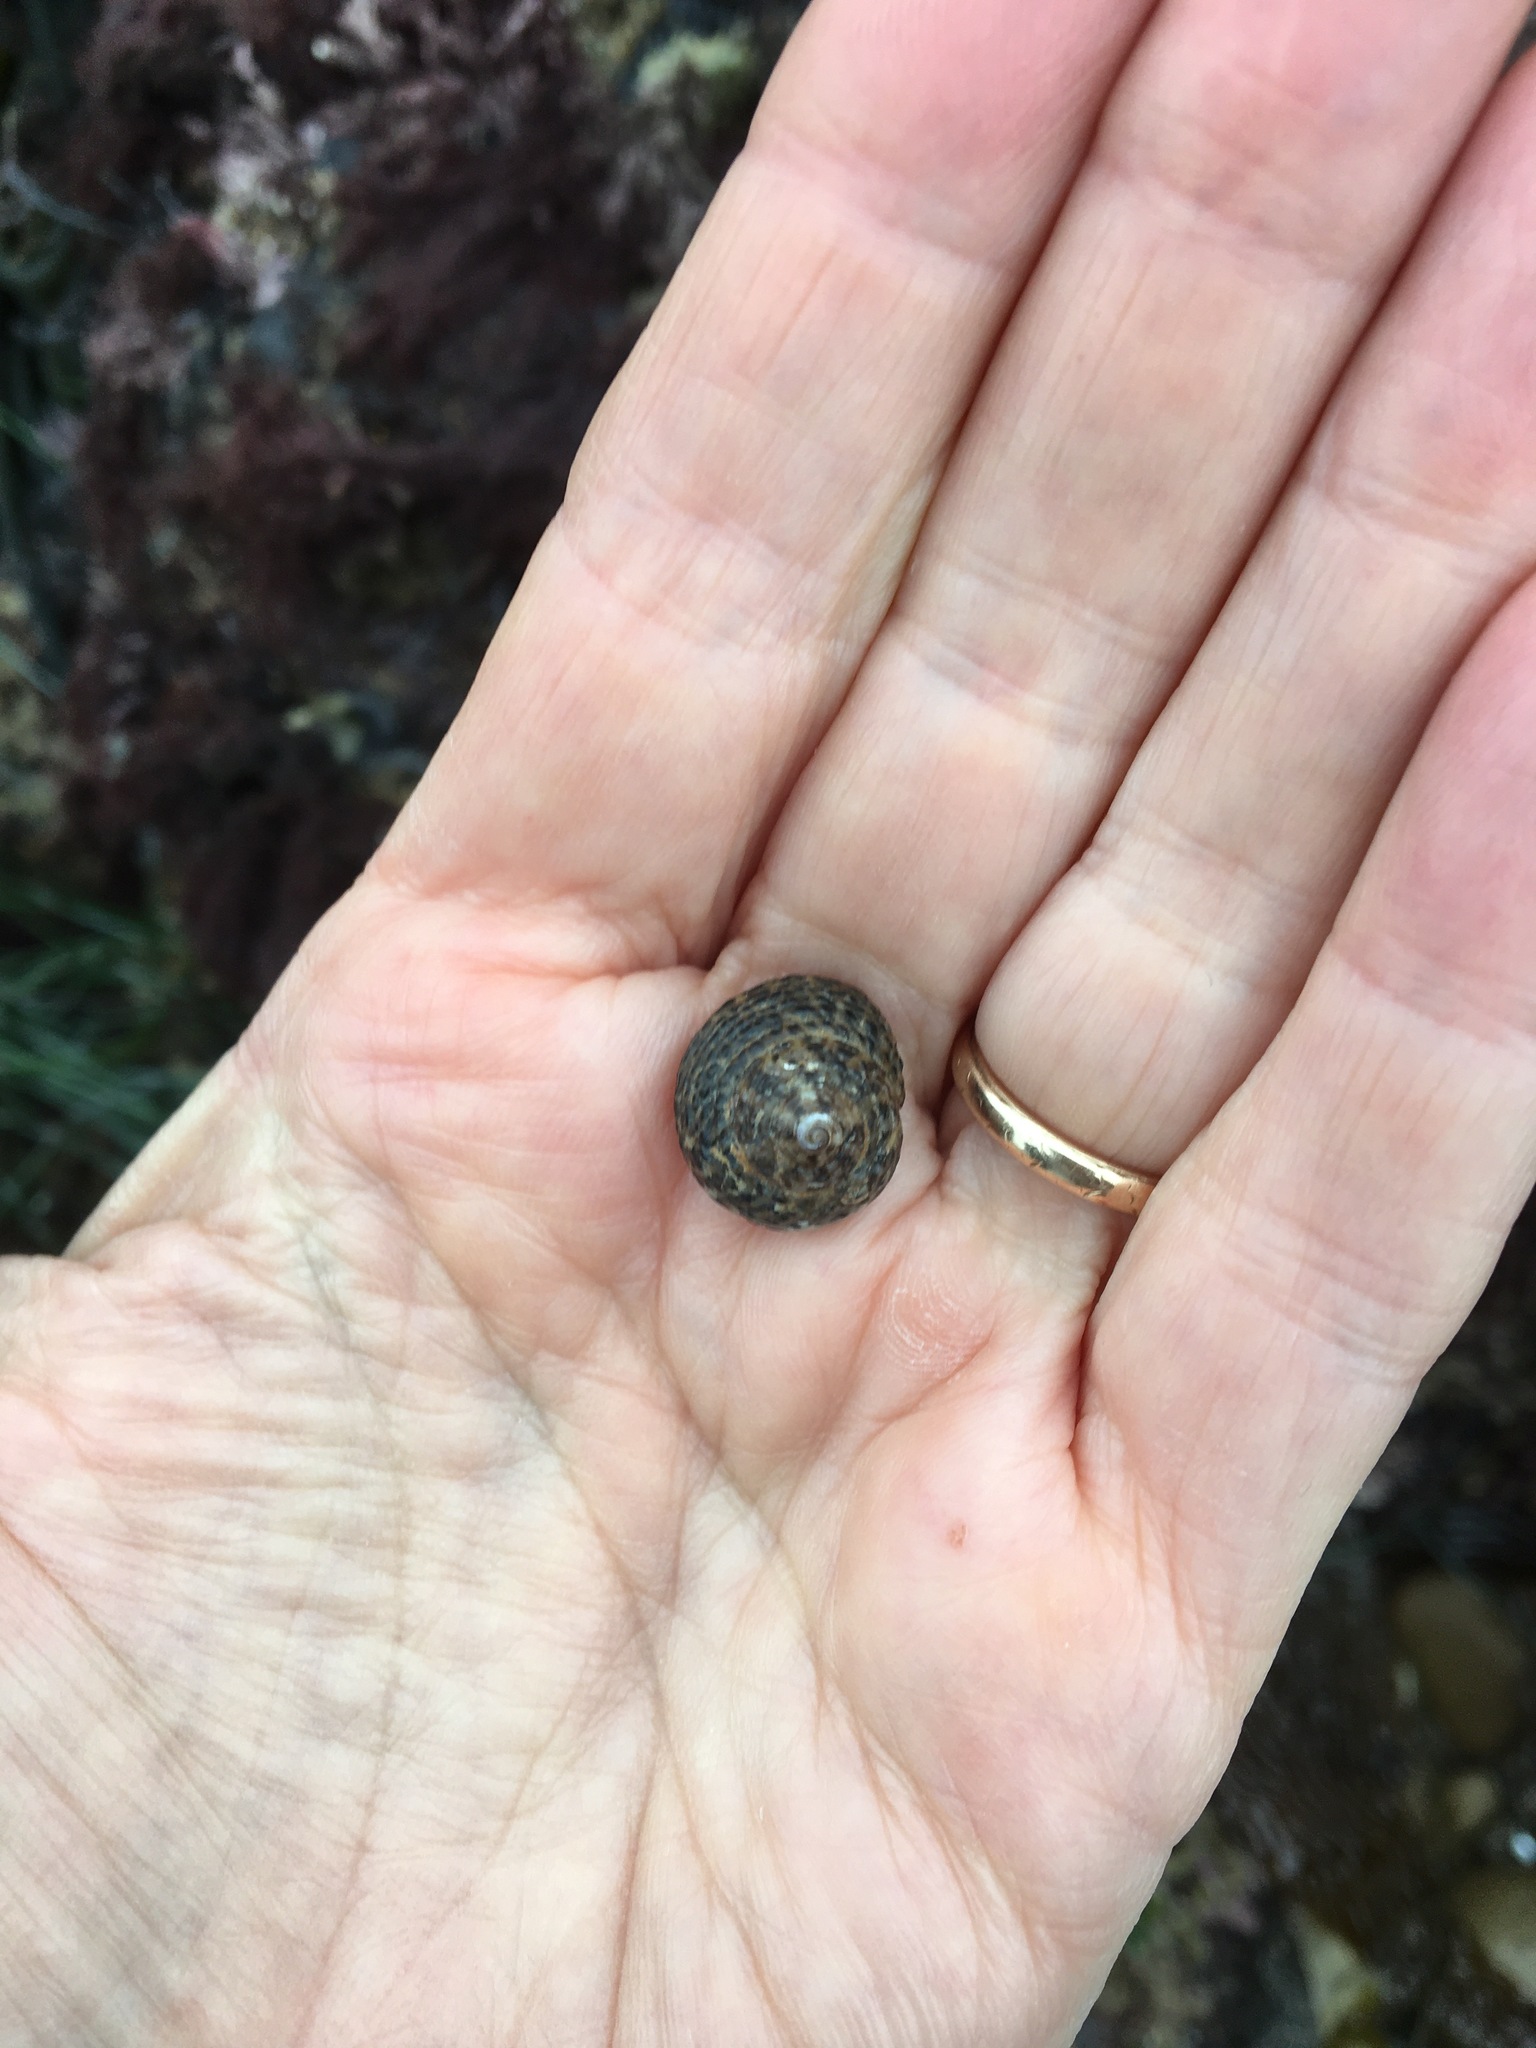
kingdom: Animalia
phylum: Mollusca
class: Gastropoda
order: Trochida
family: Tegulidae
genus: Tegula
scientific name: Tegula eiseni
